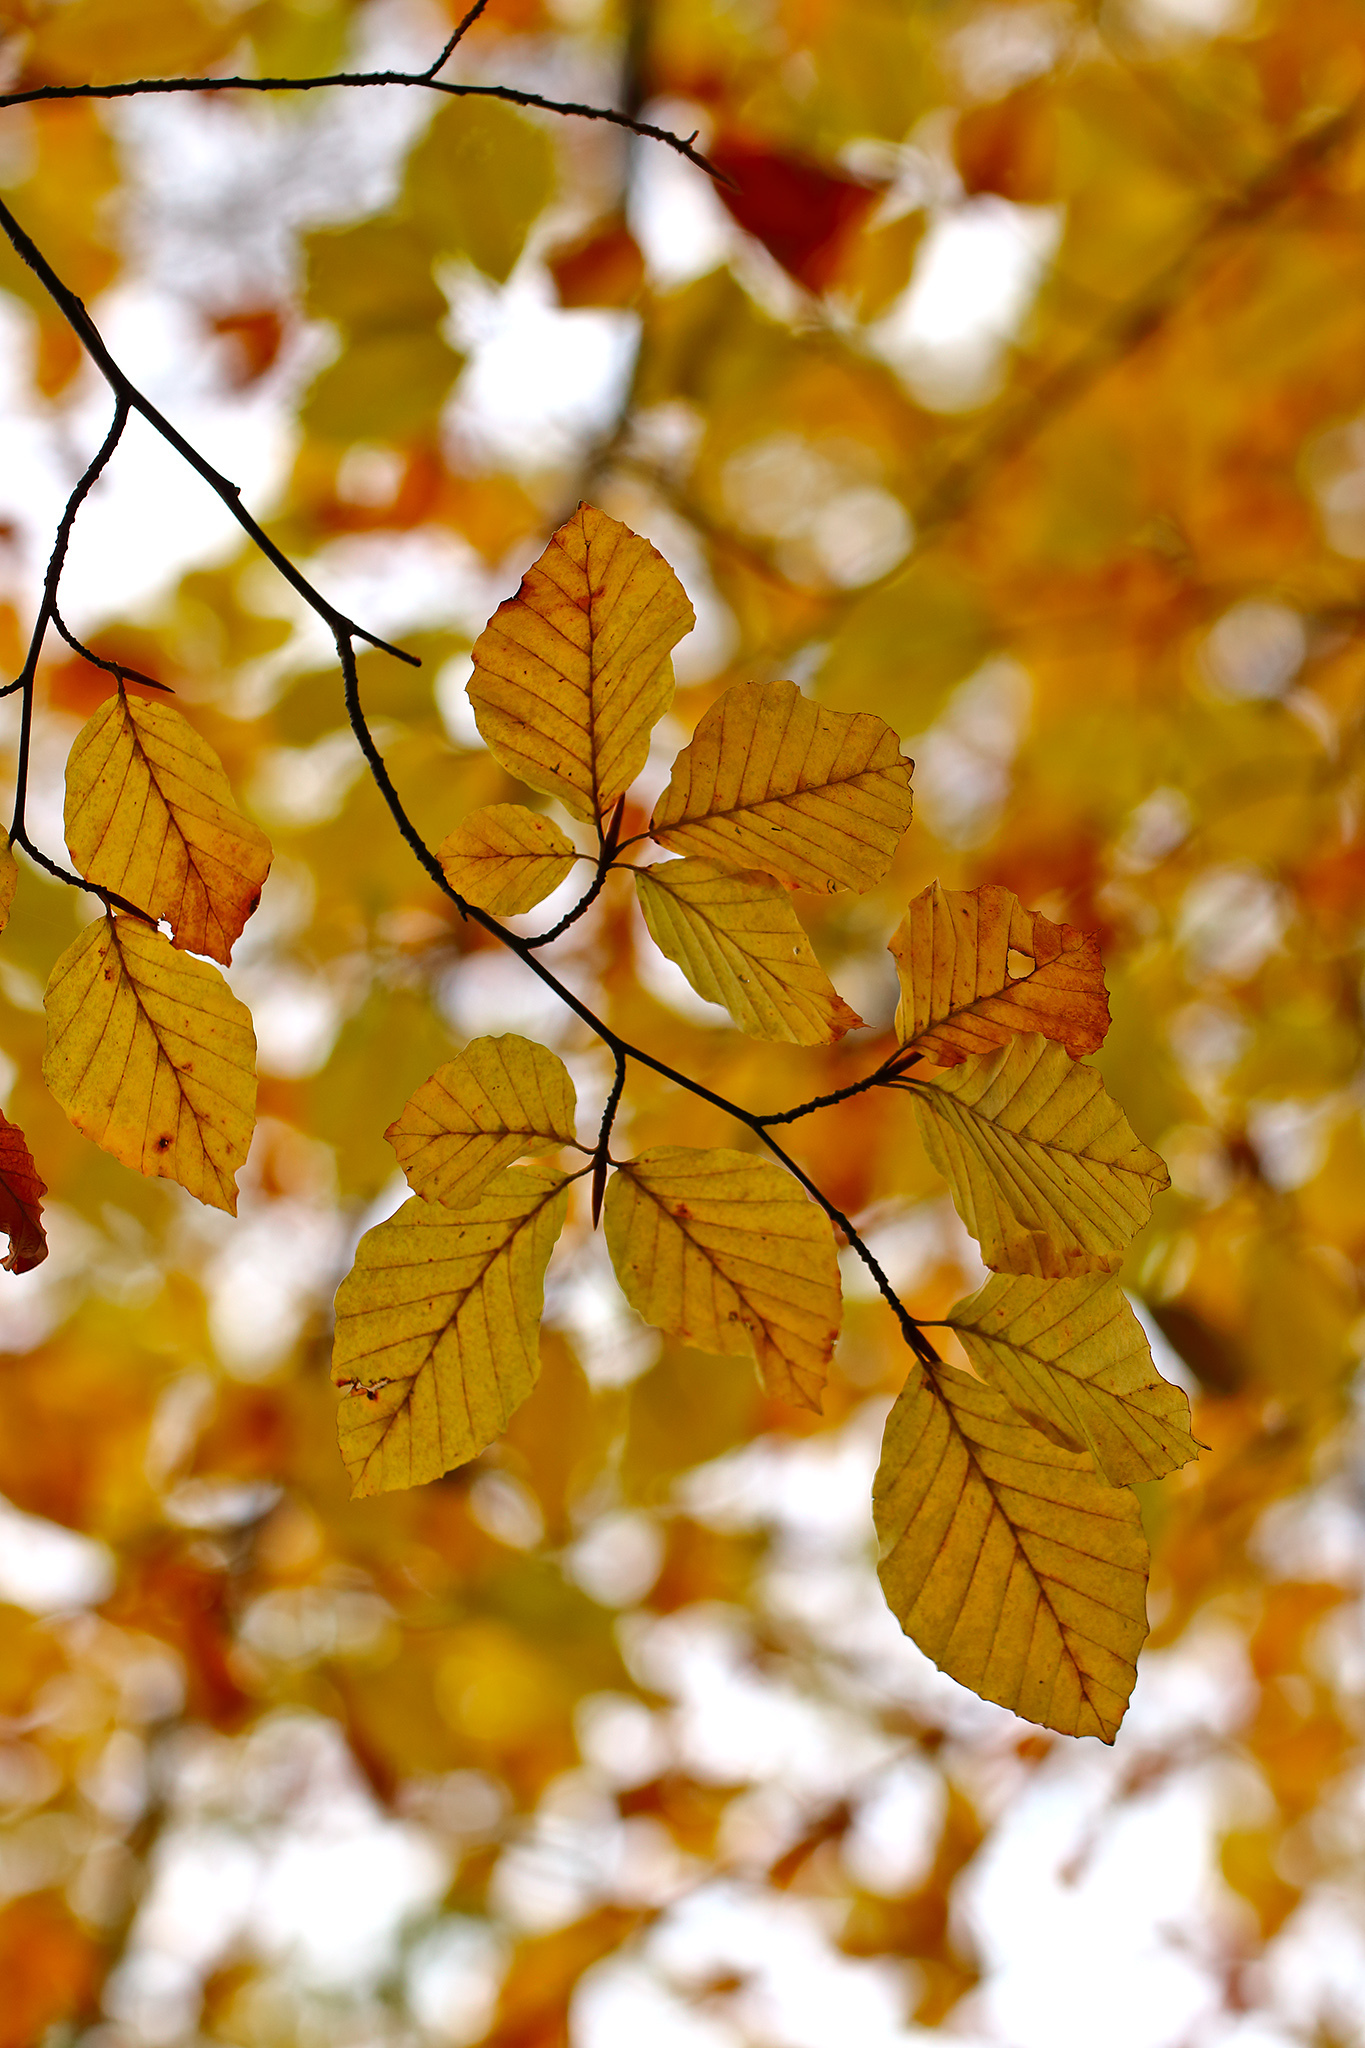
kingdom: Plantae
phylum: Tracheophyta
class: Magnoliopsida
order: Fagales
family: Fagaceae
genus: Fagus
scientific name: Fagus sylvatica
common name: Beech
